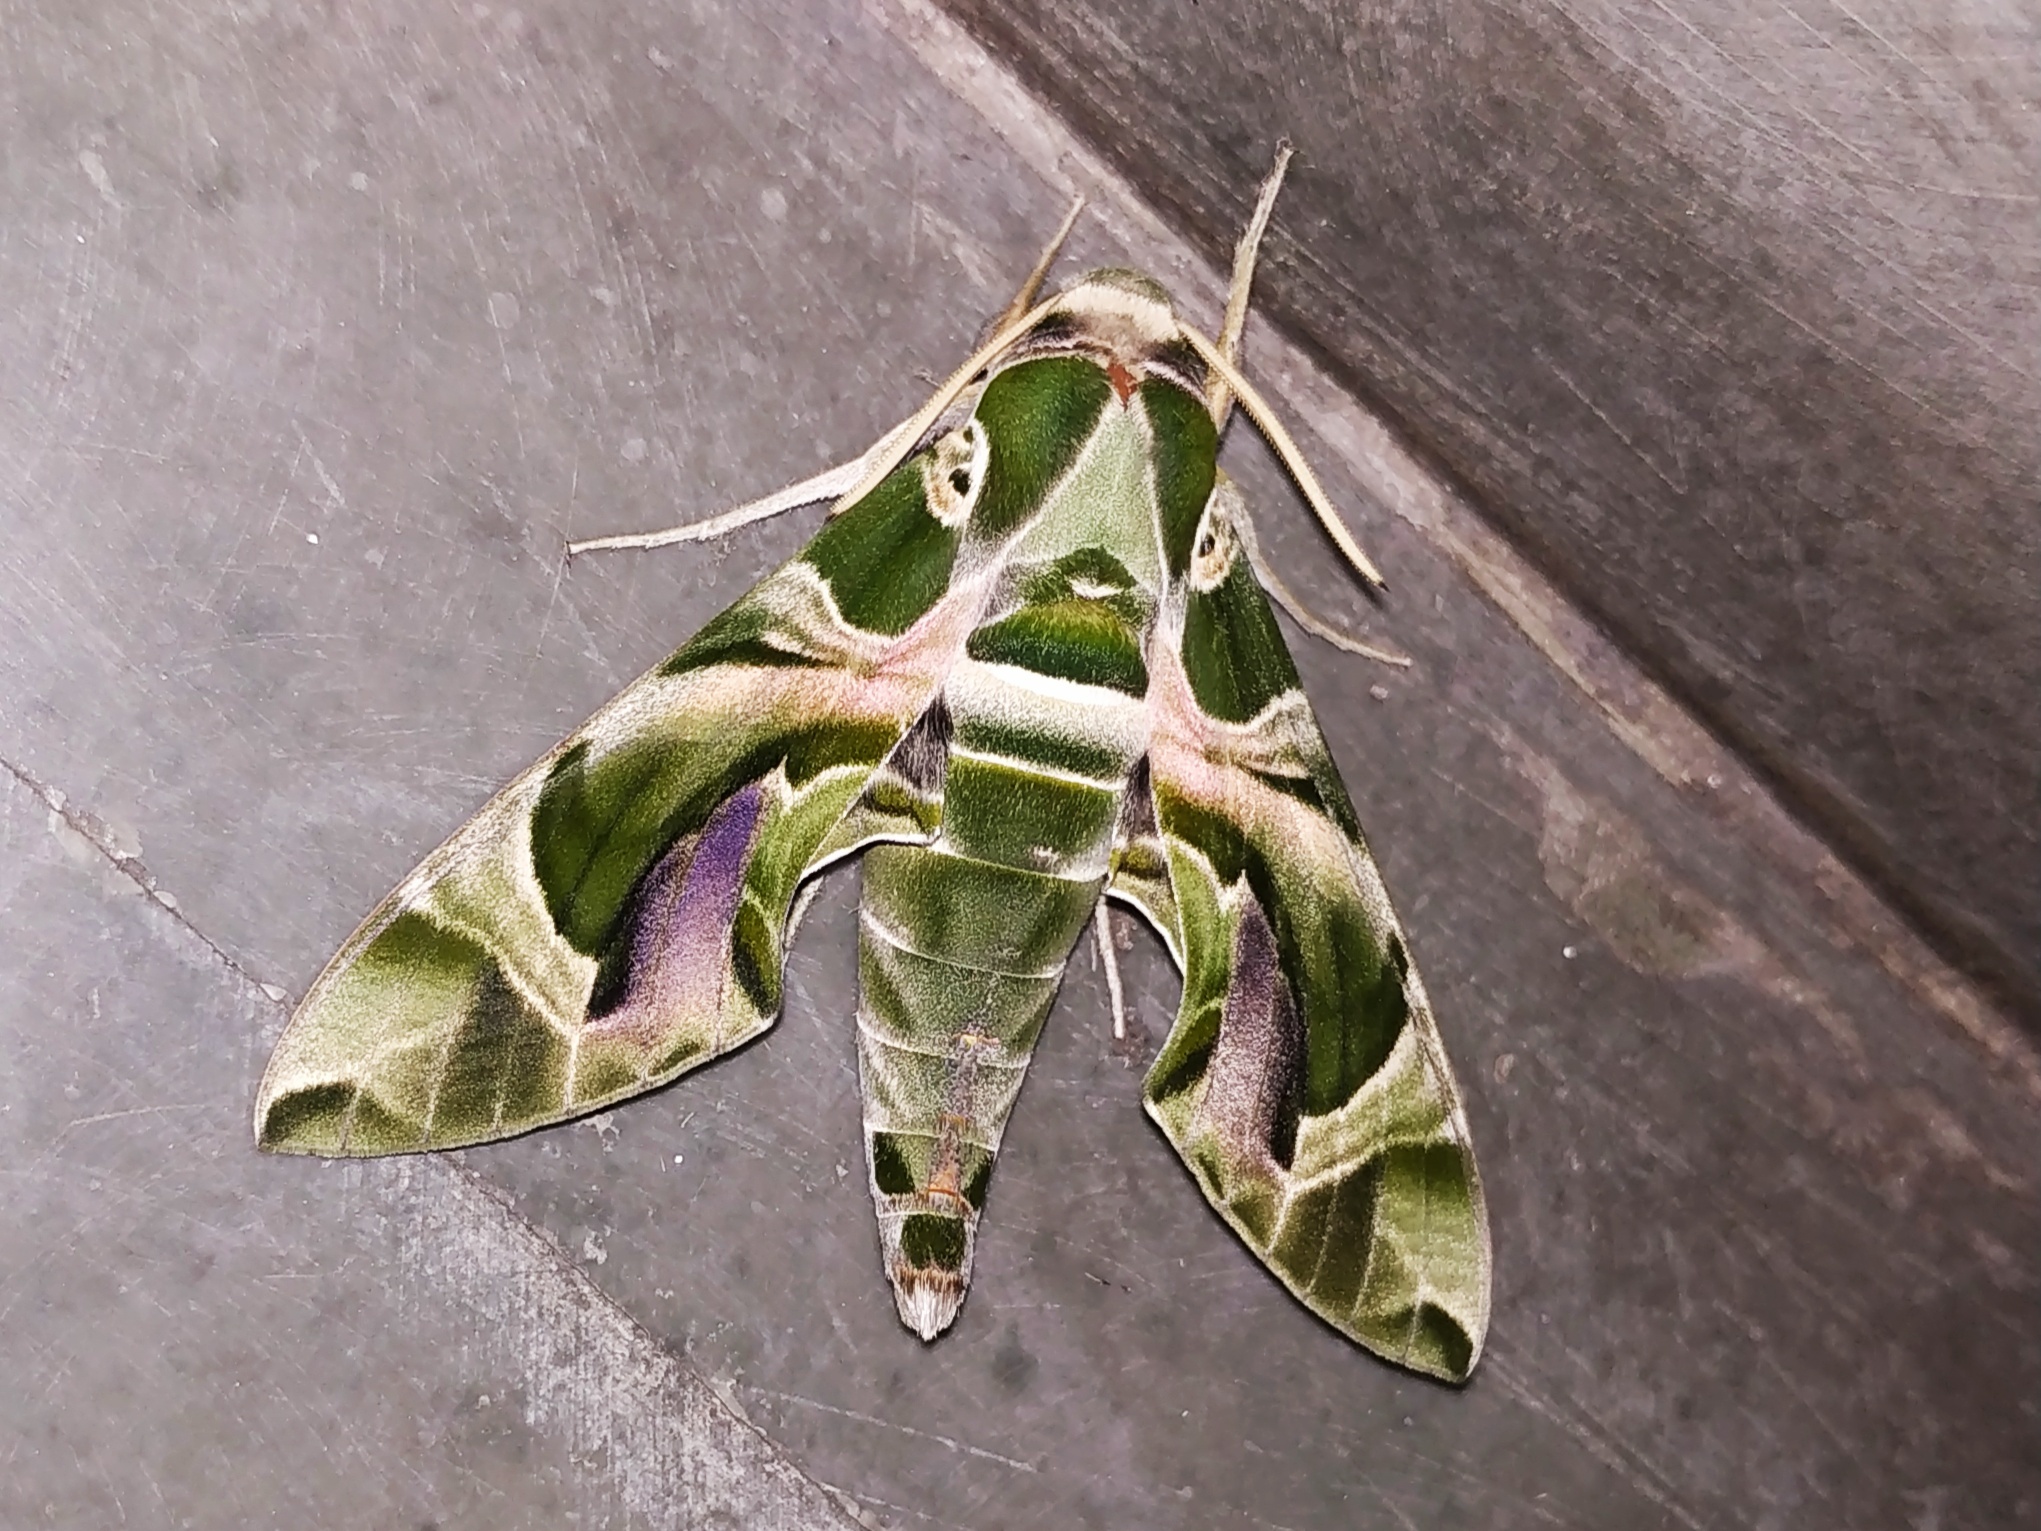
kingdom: Animalia
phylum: Arthropoda
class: Insecta
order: Lepidoptera
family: Sphingidae
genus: Daphnis
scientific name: Daphnis nerii
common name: Oleander hawk-moth
